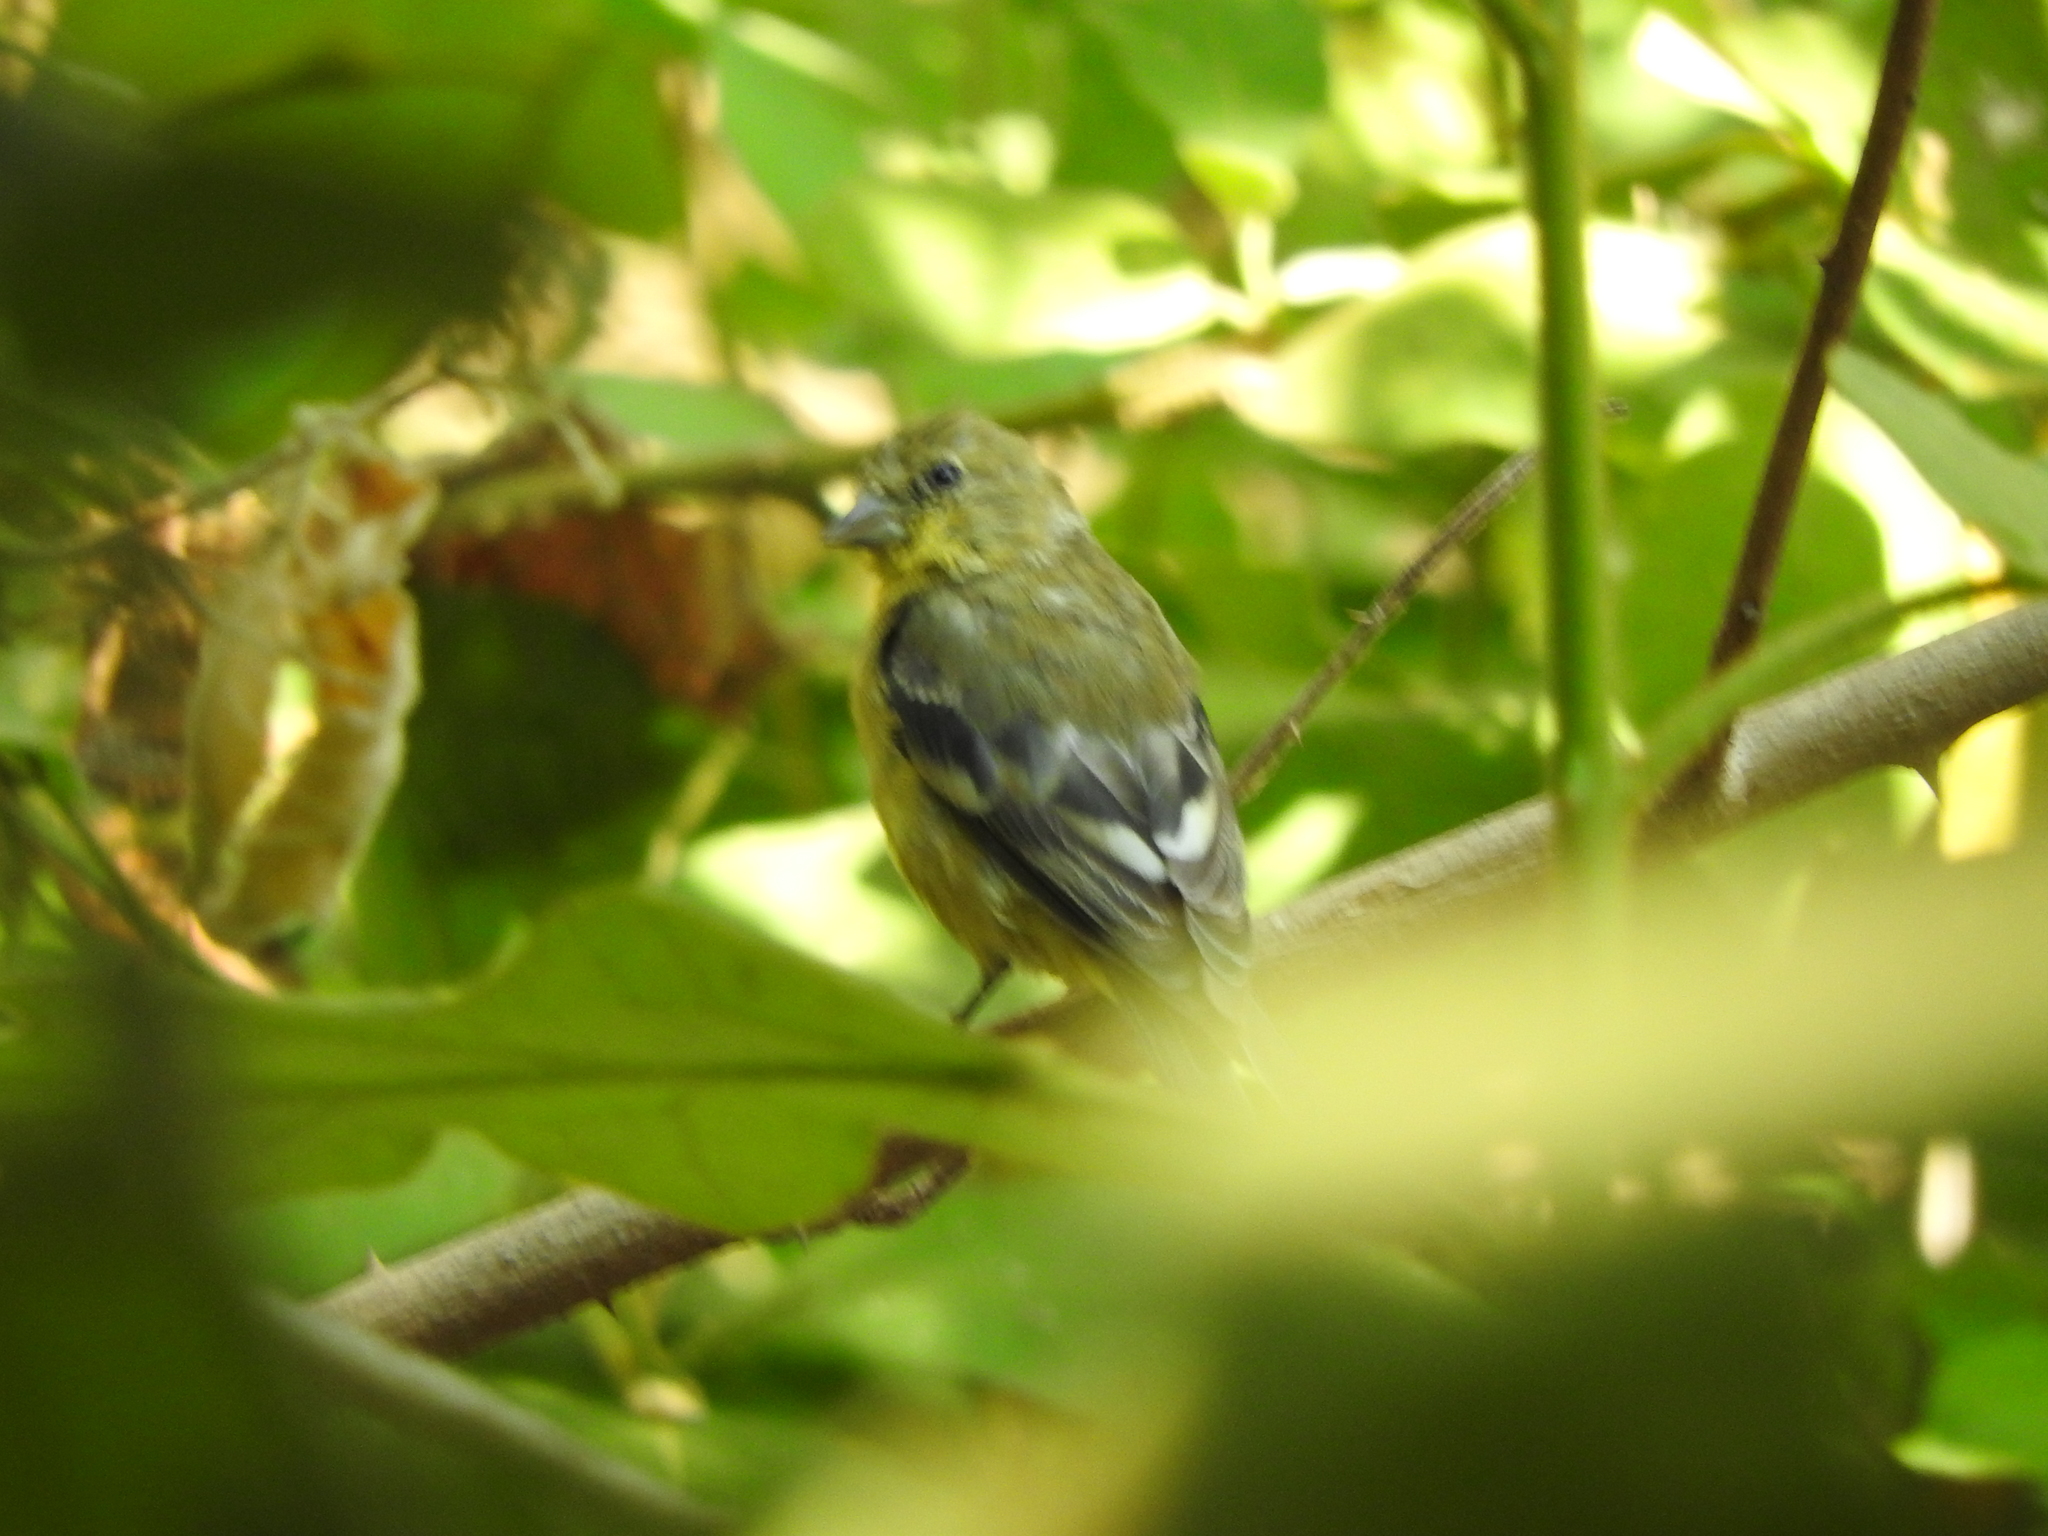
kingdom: Animalia
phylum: Chordata
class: Aves
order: Passeriformes
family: Fringillidae
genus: Spinus
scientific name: Spinus psaltria
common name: Lesser goldfinch
